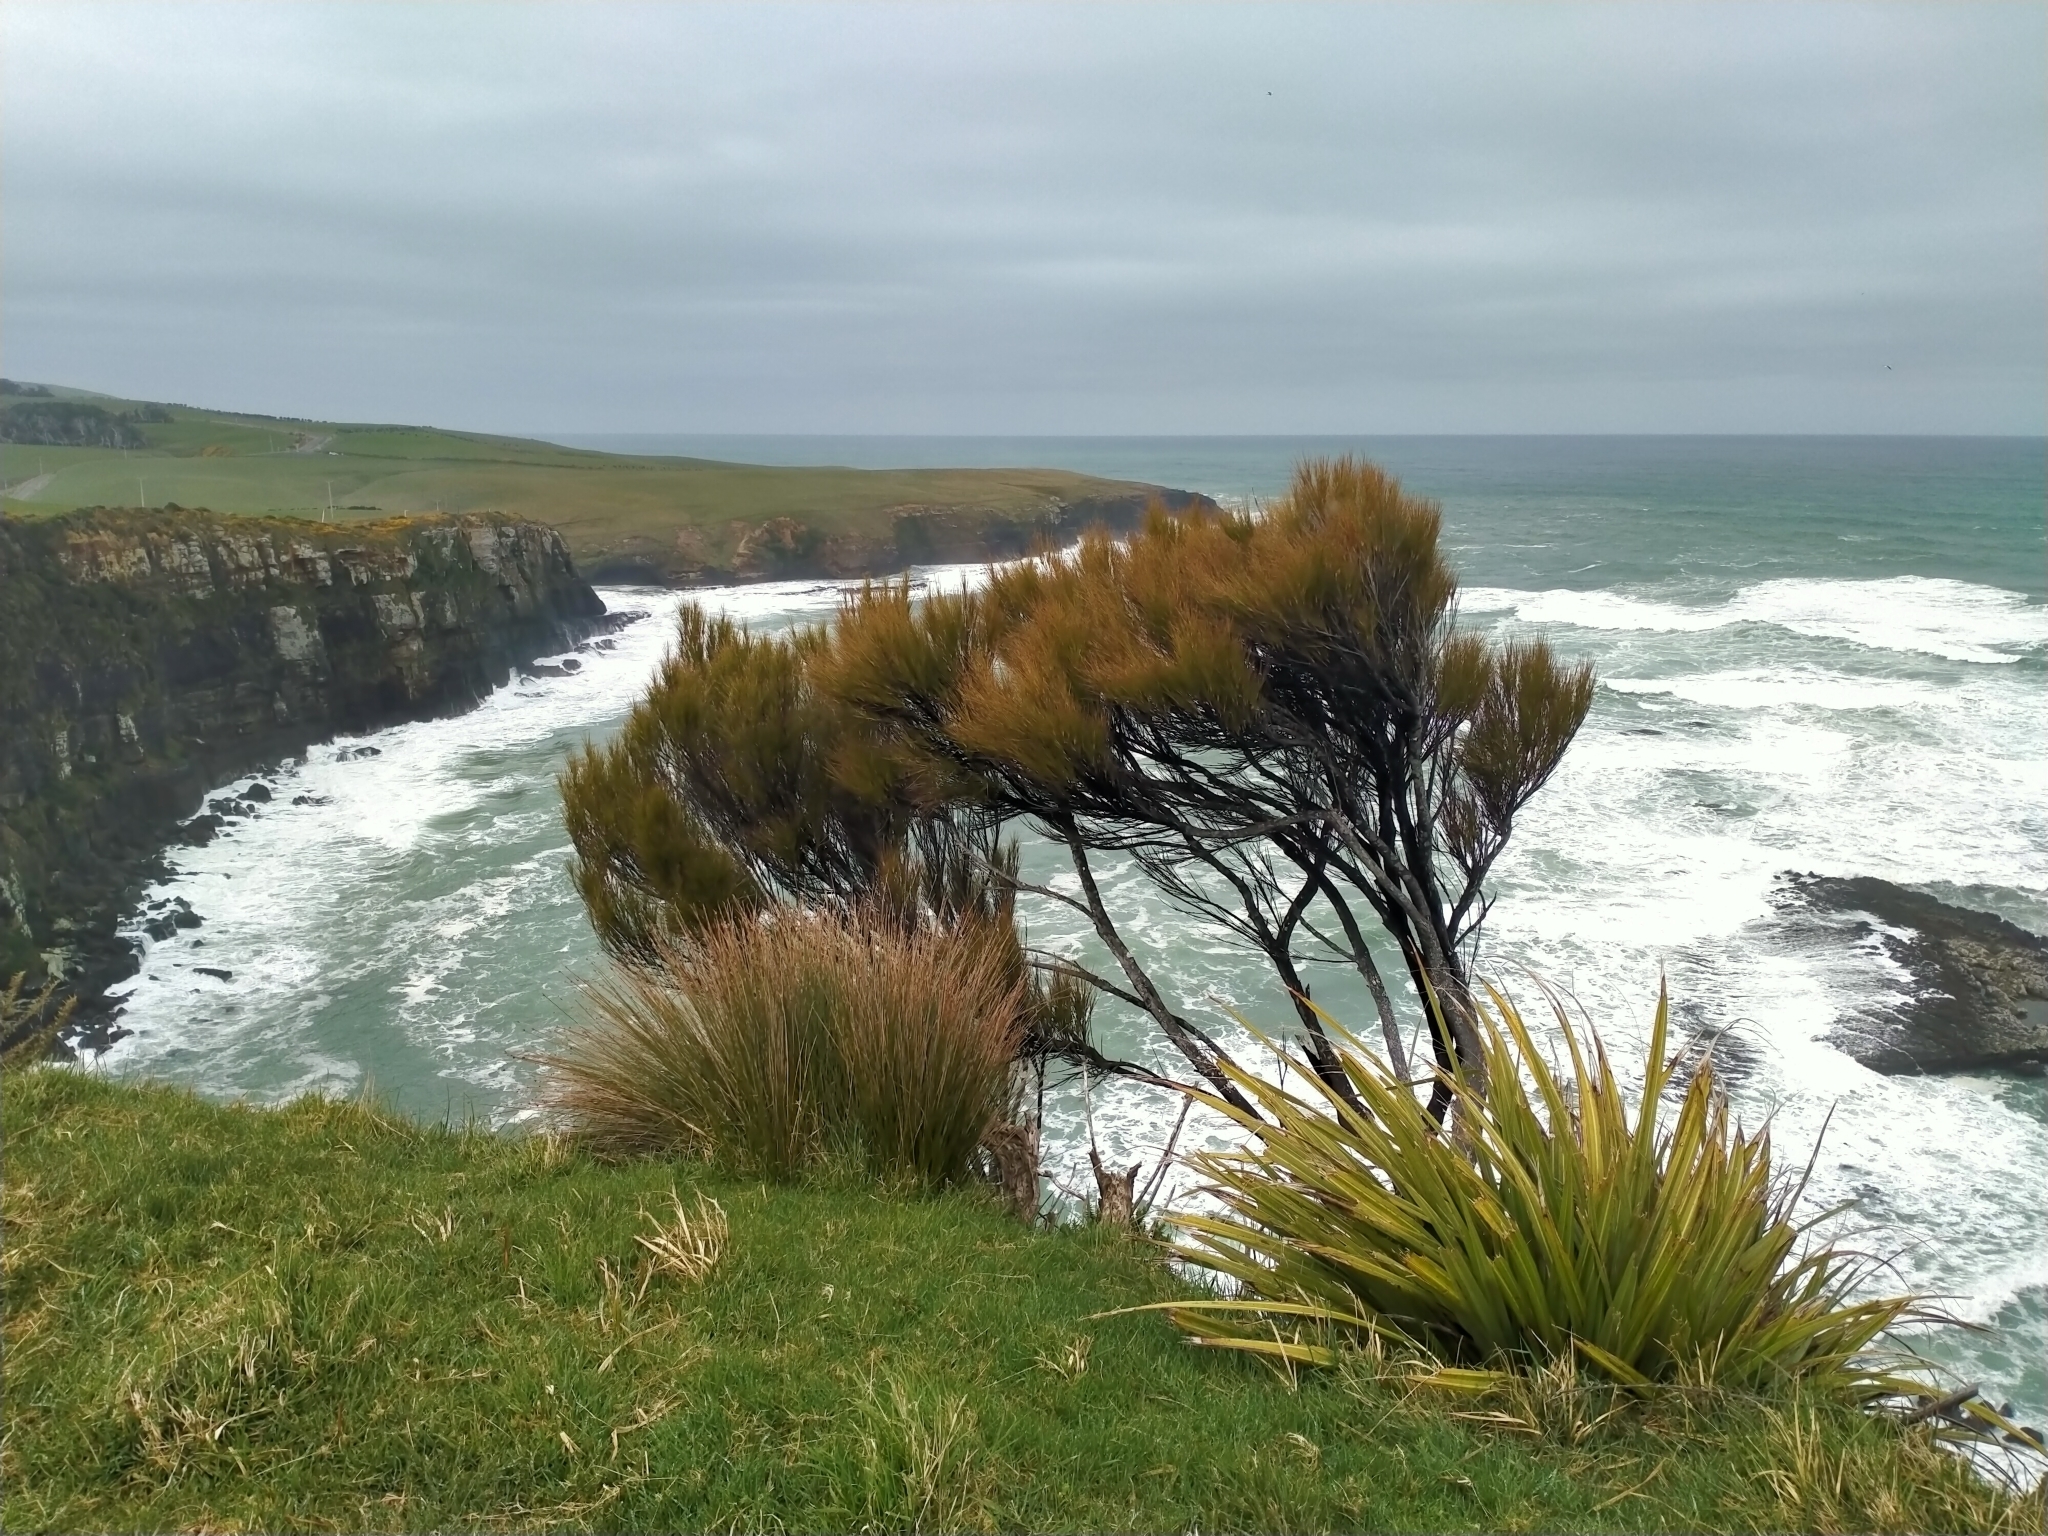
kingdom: Plantae
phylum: Tracheophyta
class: Magnoliopsida
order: Ericales
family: Ericaceae
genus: Dracophyllum
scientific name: Dracophyllum longifolium
